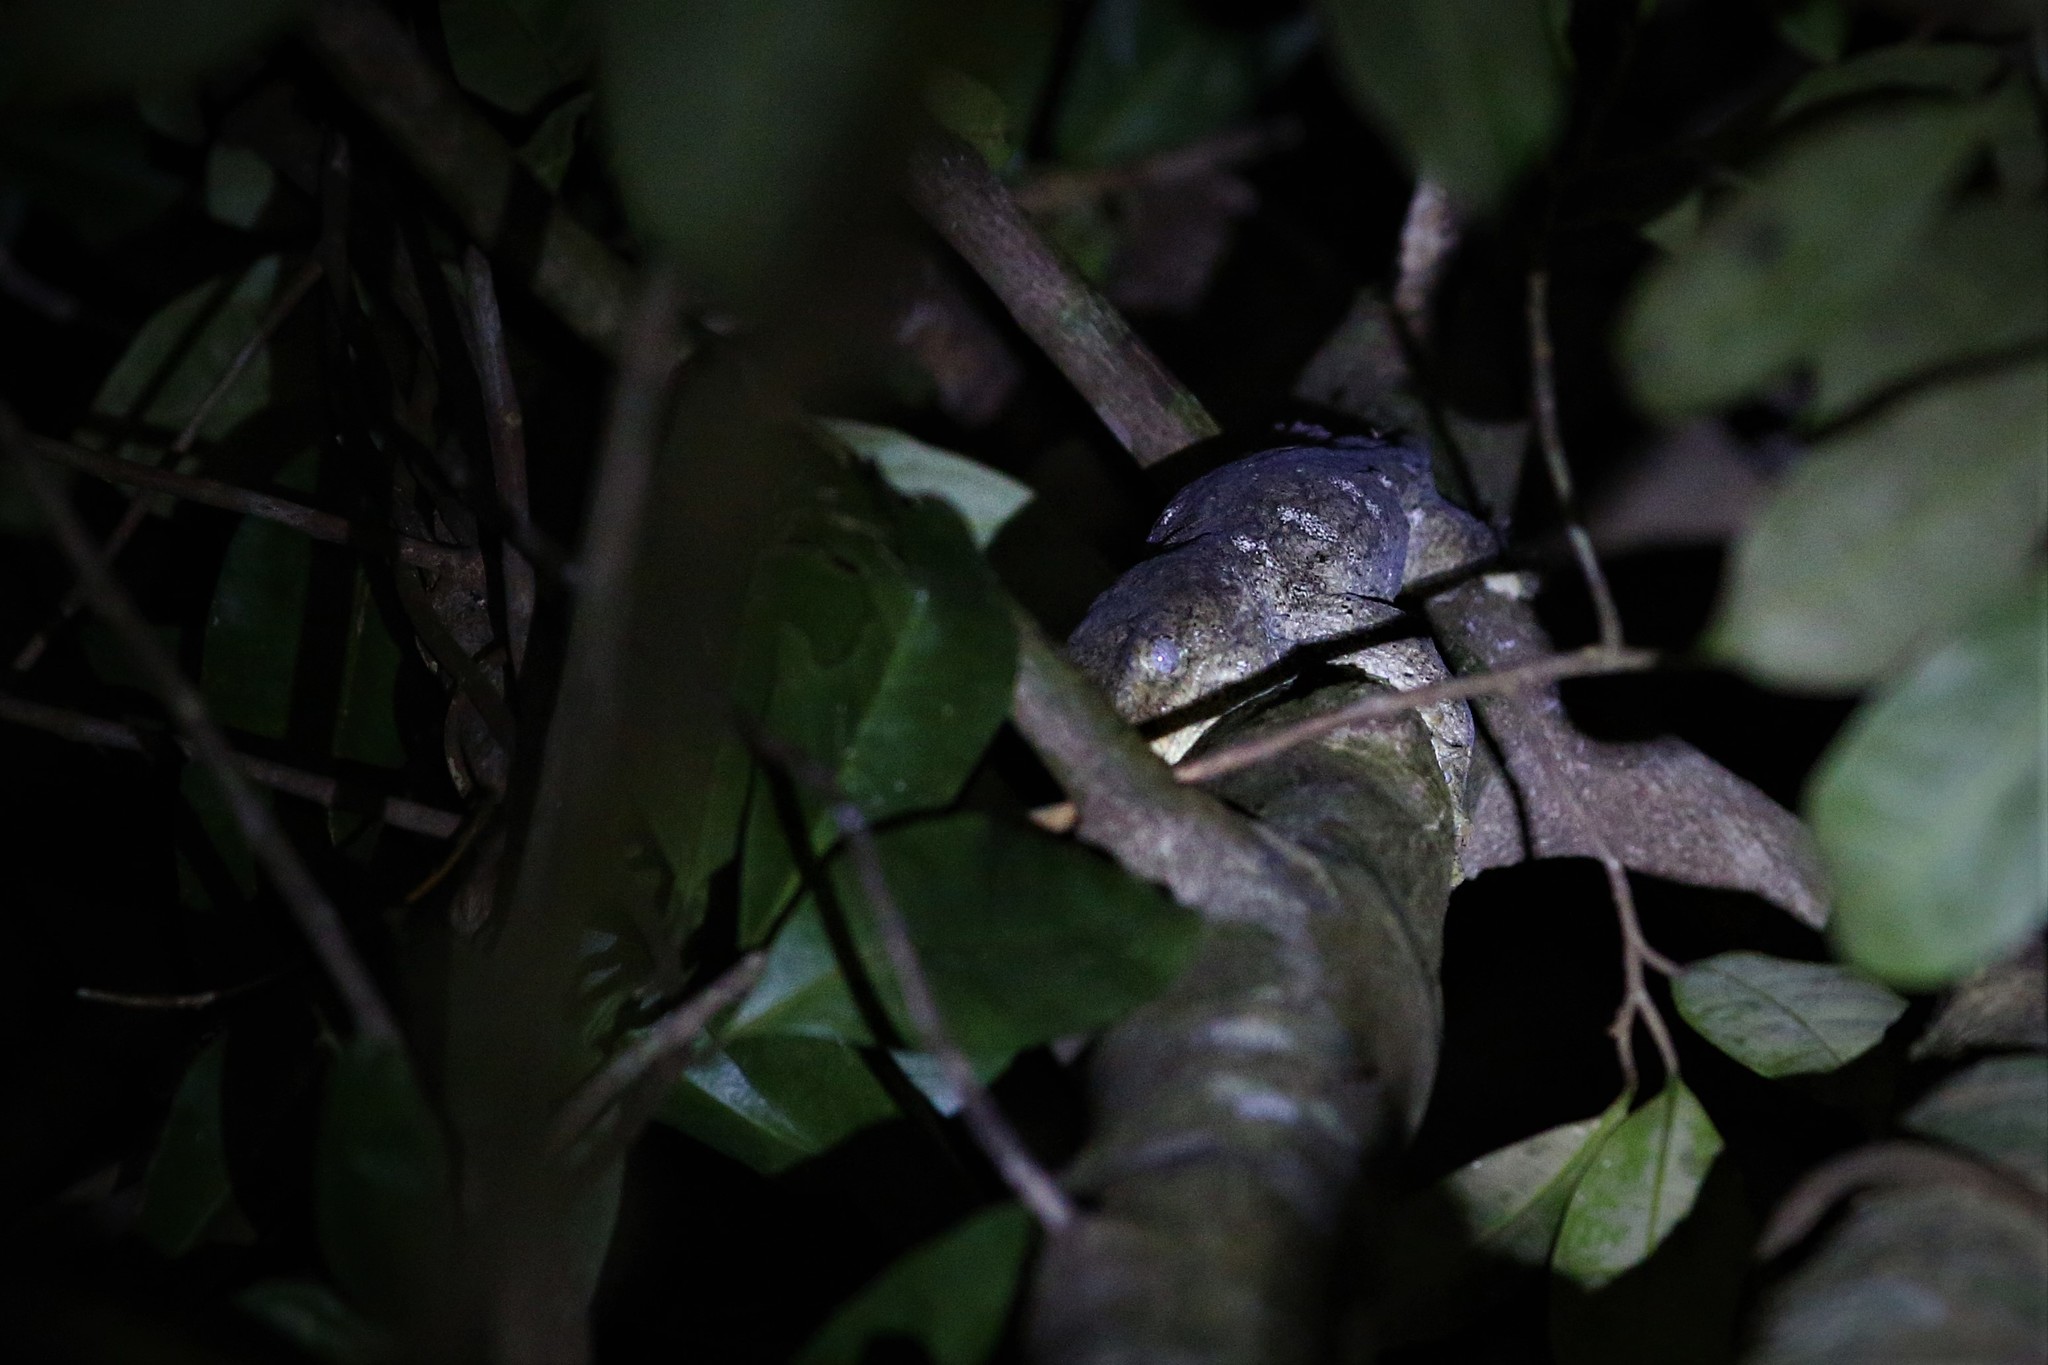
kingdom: Animalia
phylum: Chordata
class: Squamata
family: Diplodactylidae
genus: Rhacodactylus
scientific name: Rhacodactylus leachianus
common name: New caledonia giant gecko
